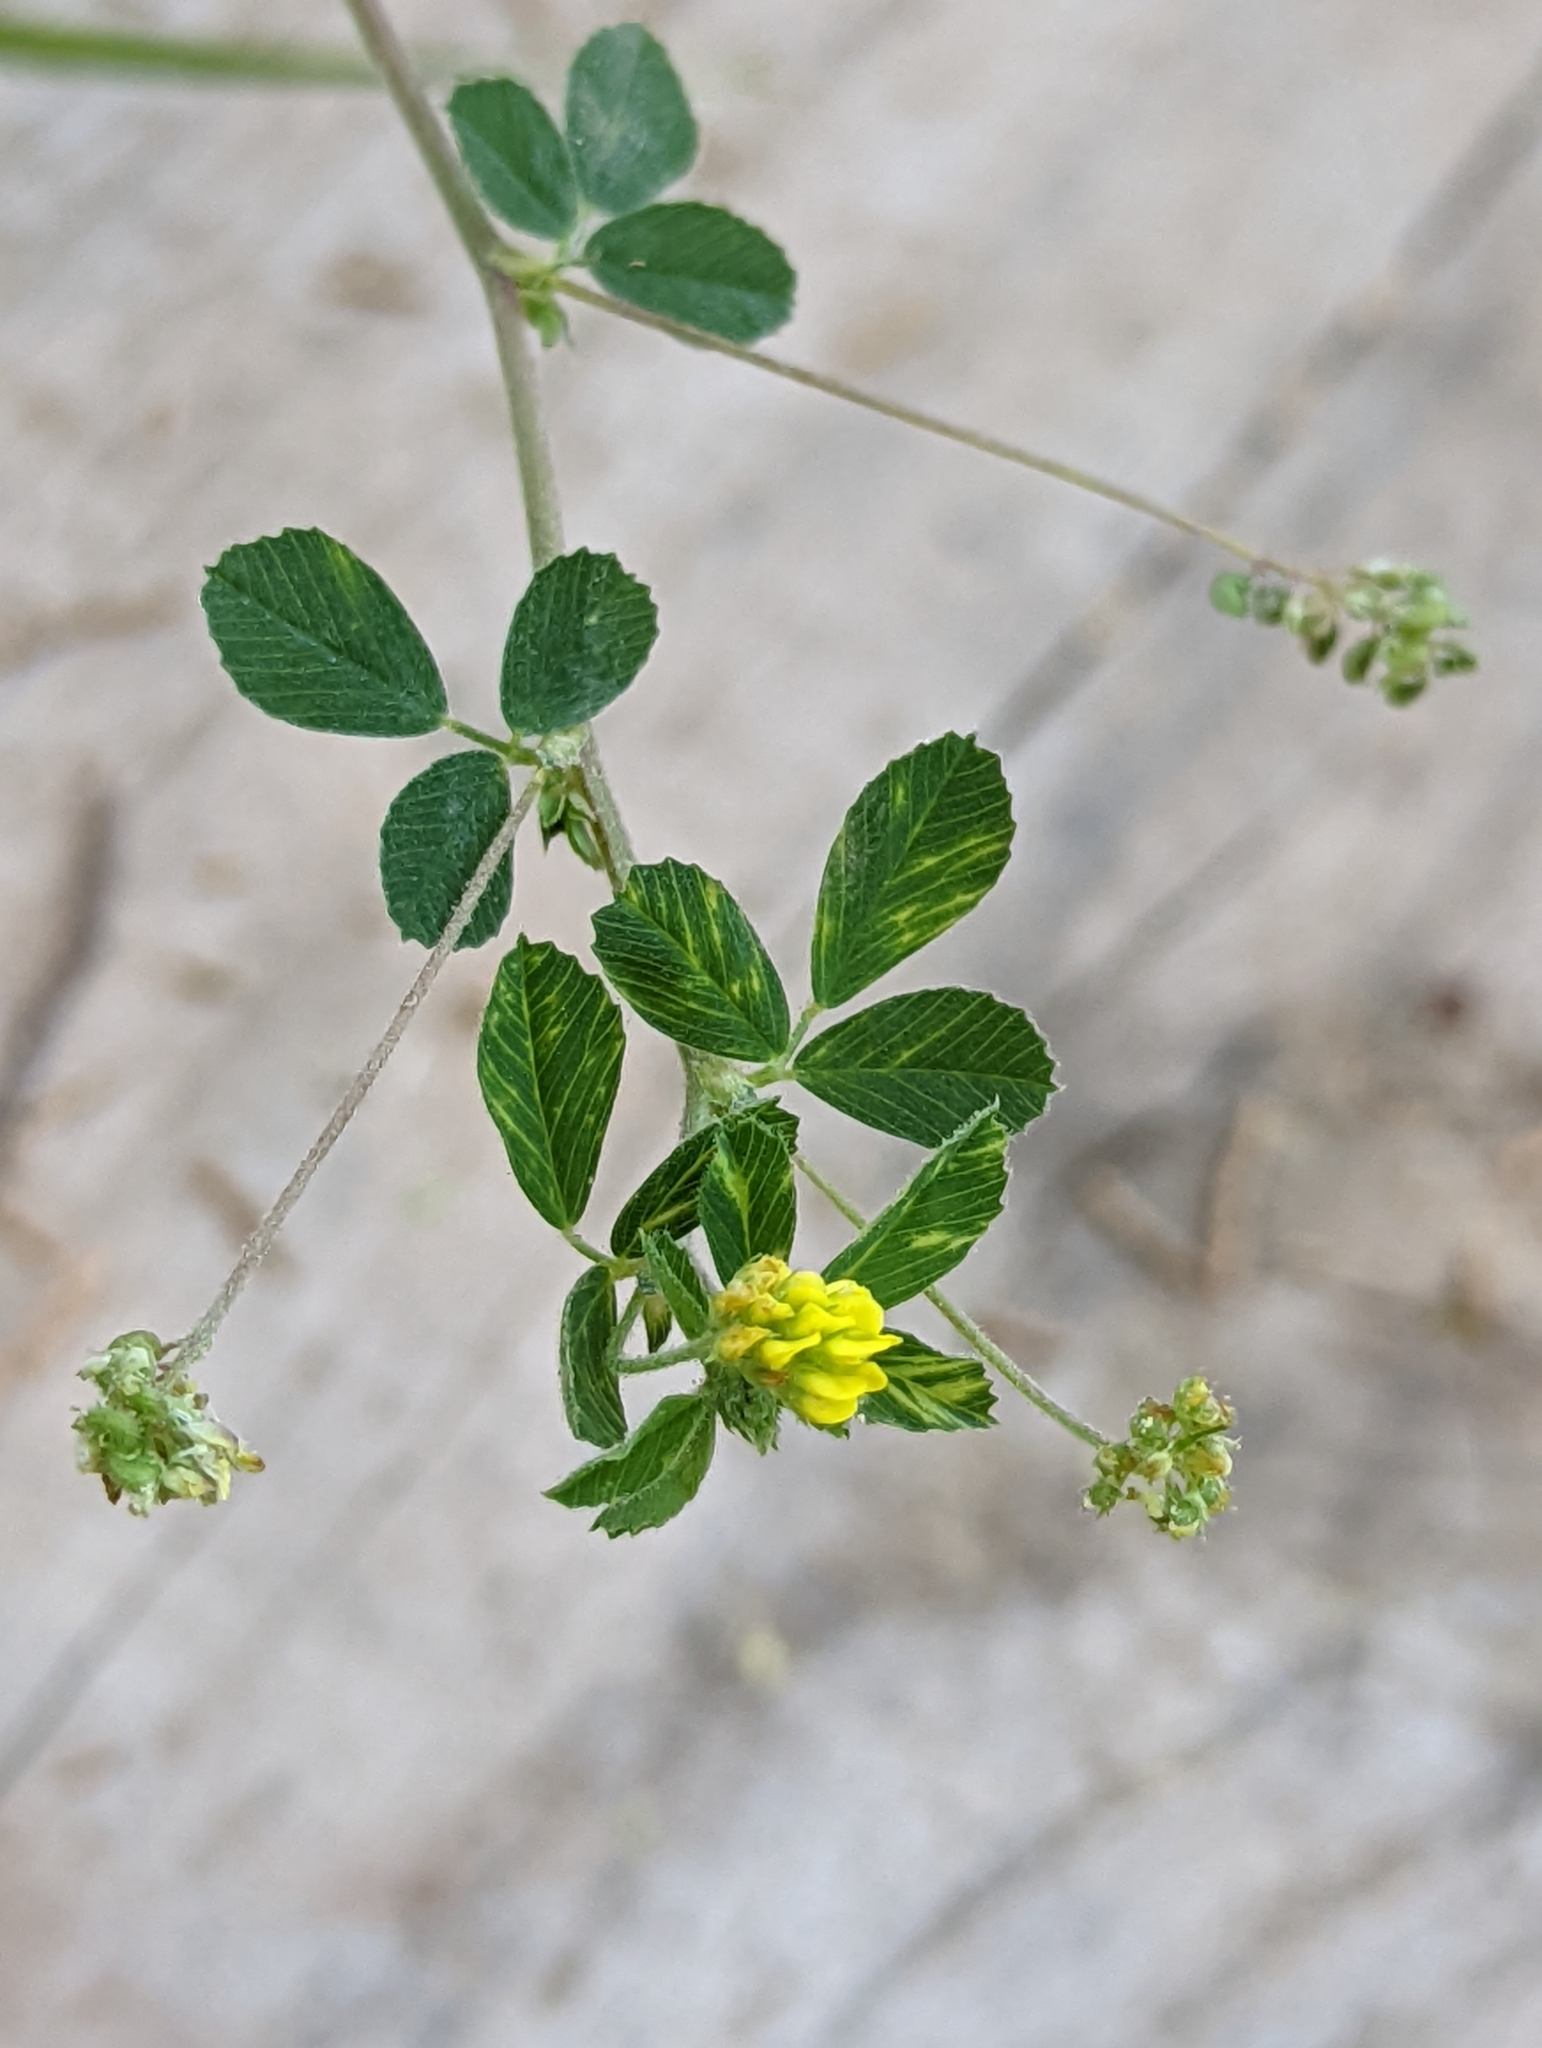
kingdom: Plantae
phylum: Tracheophyta
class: Magnoliopsida
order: Fabales
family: Fabaceae
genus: Medicago
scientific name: Medicago lupulina
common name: Black medick
